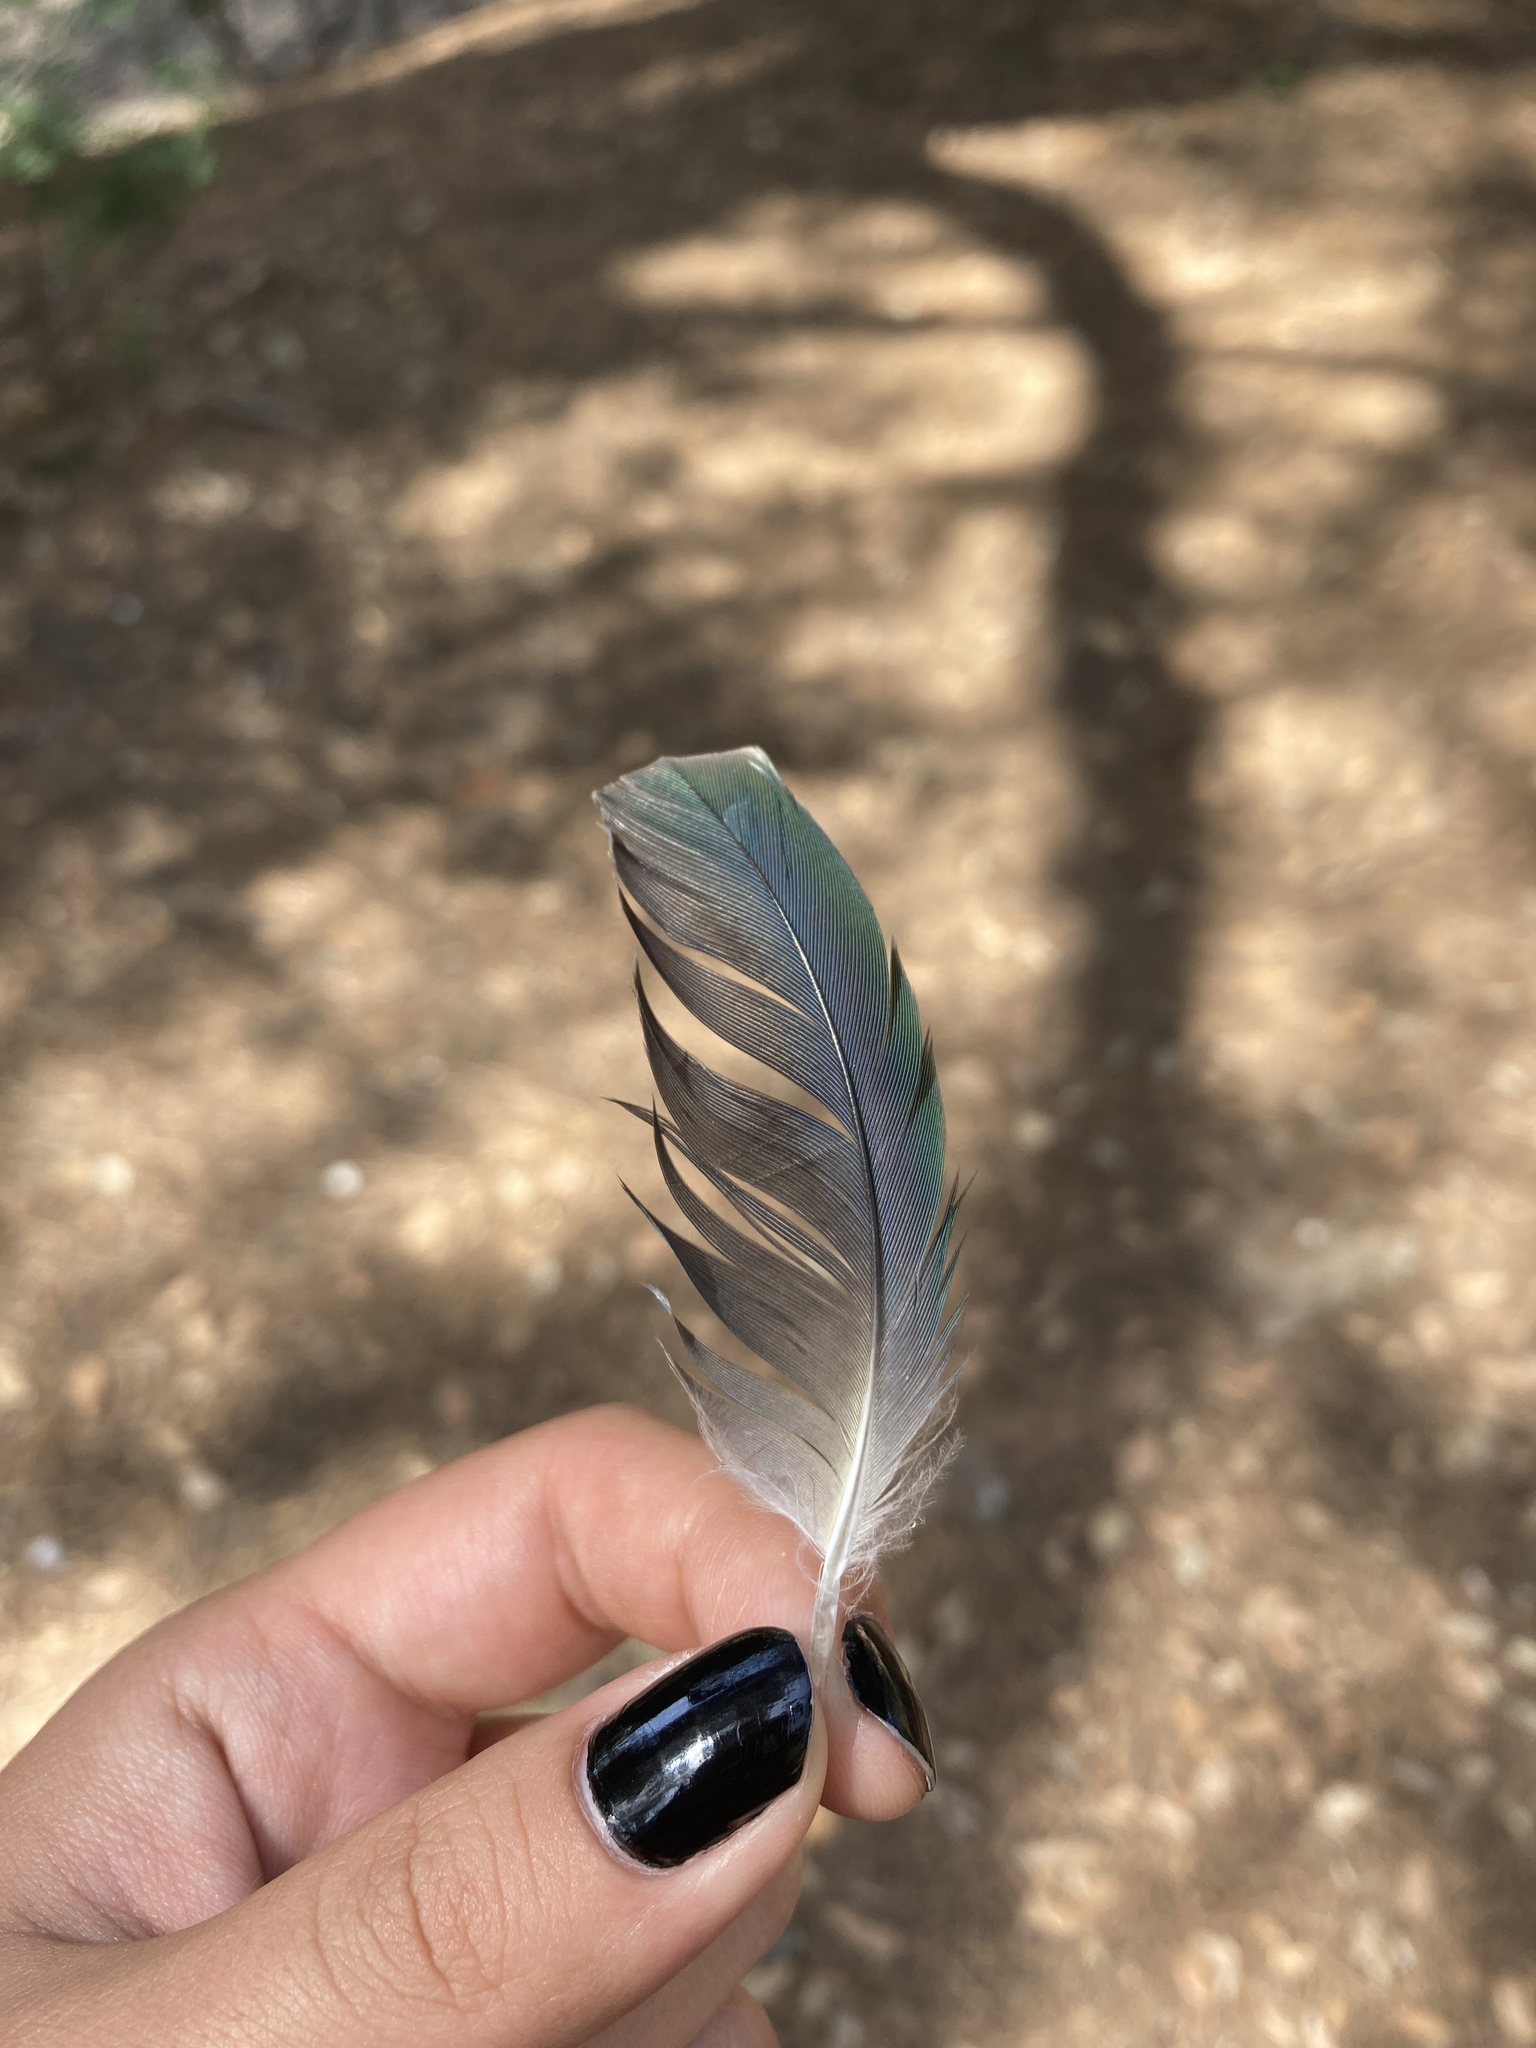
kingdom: Animalia
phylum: Chordata
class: Aves
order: Psittaciformes
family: Psittacidae
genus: Myiopsitta
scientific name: Myiopsitta monachus
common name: Monk parakeet
